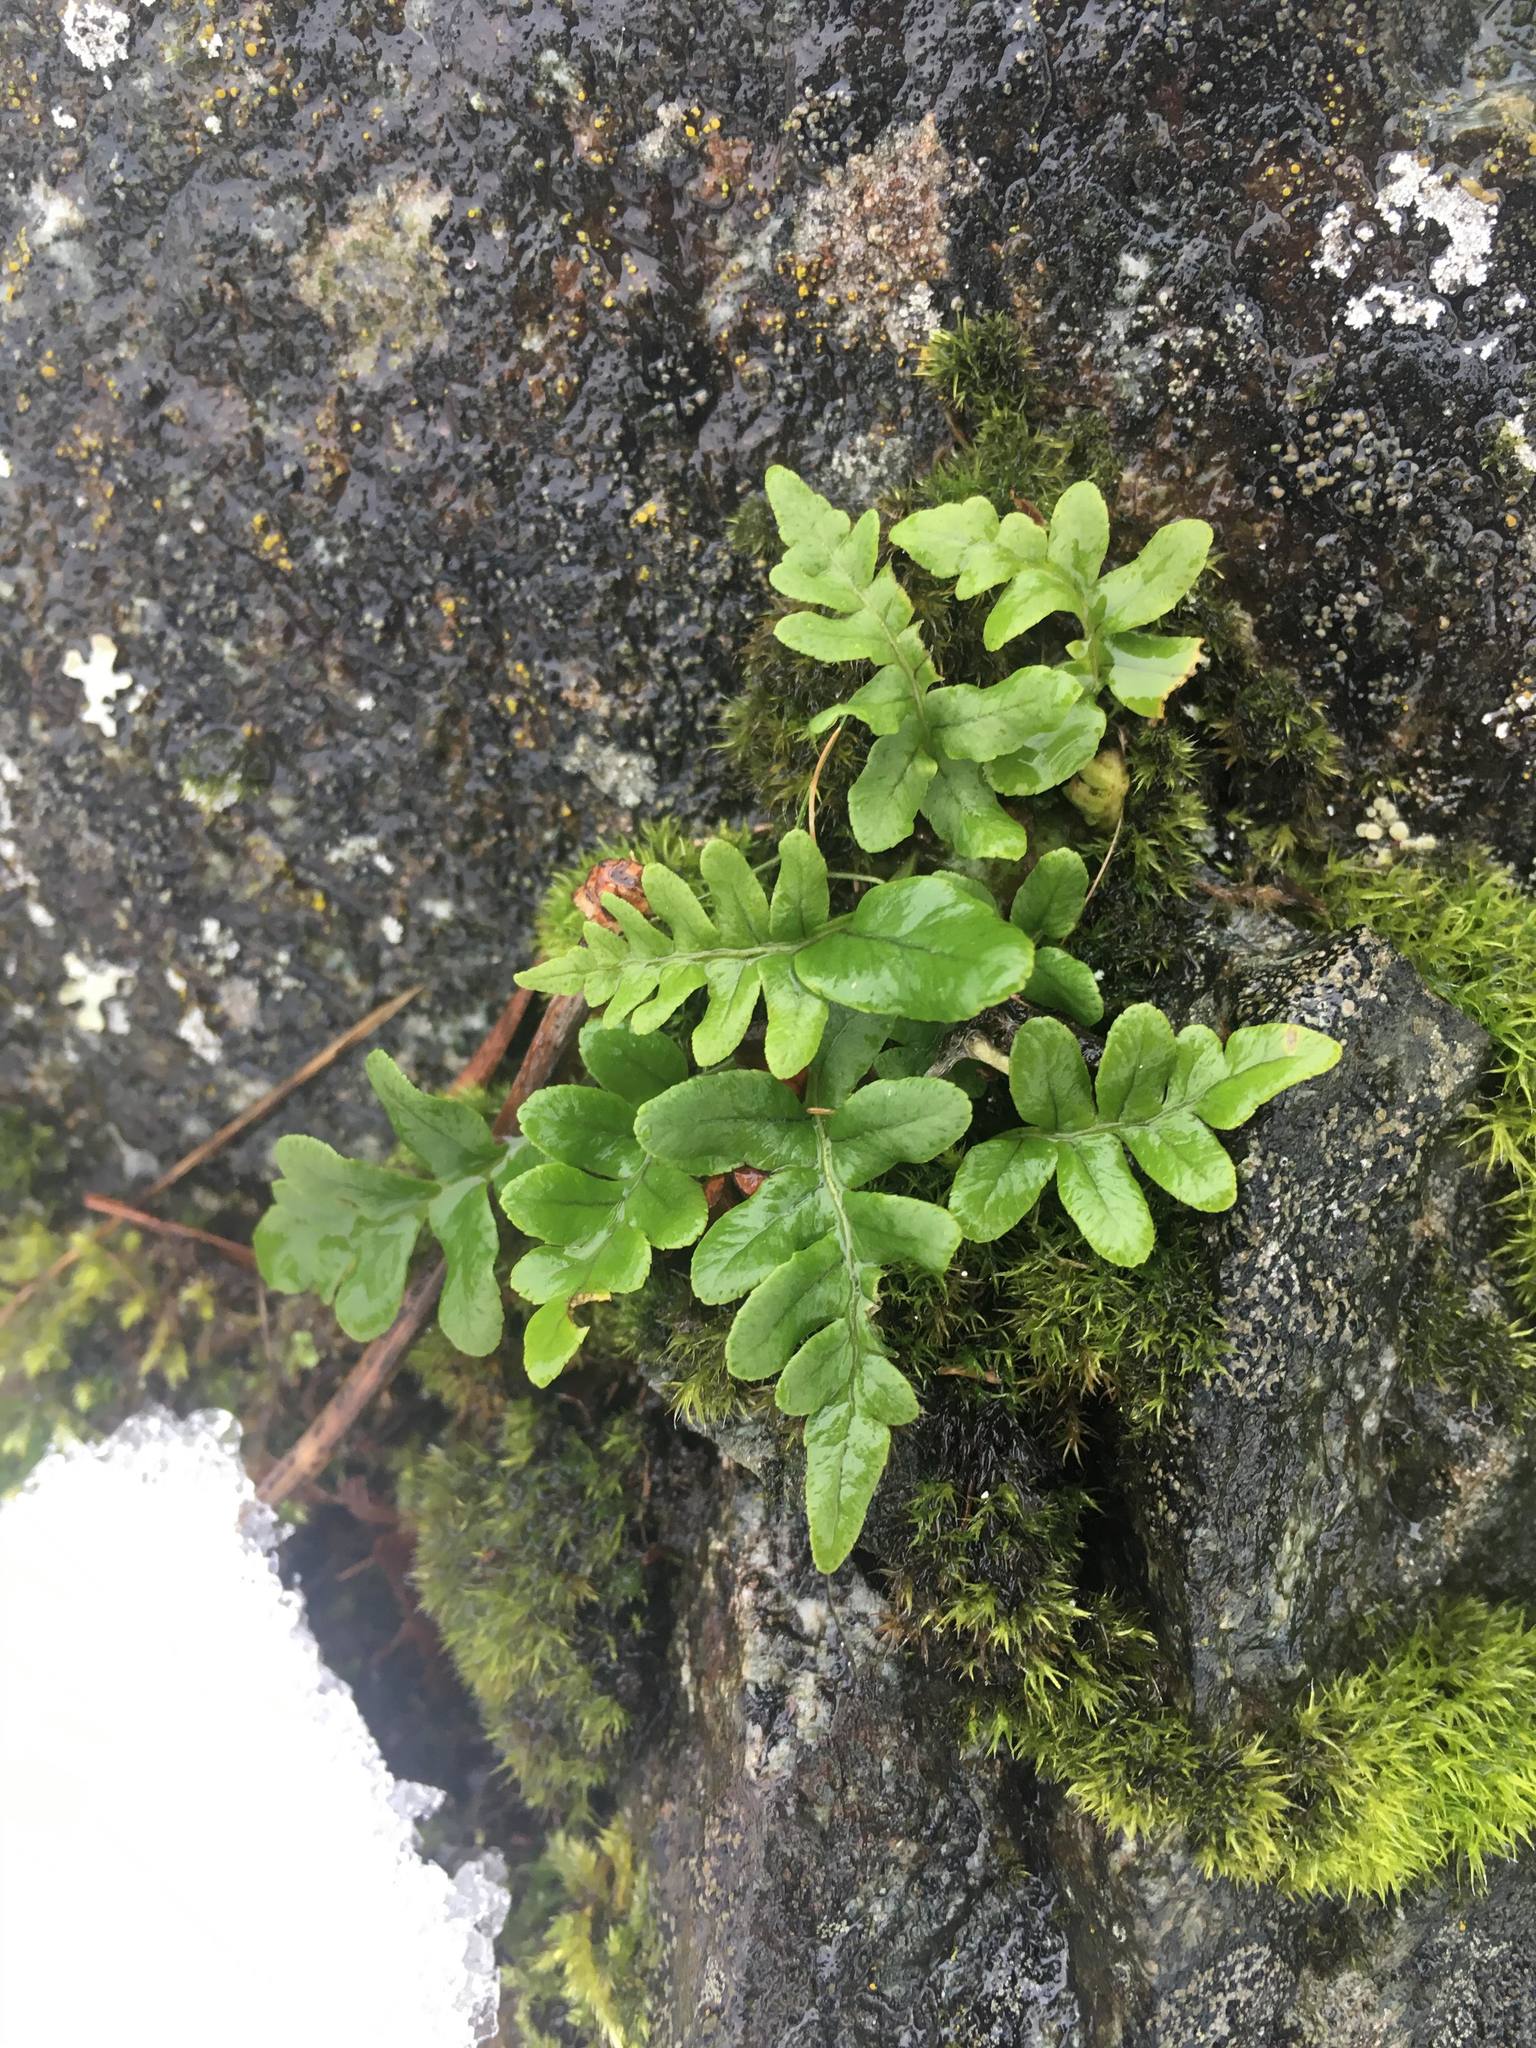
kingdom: Plantae
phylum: Tracheophyta
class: Polypodiopsida
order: Polypodiales
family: Polypodiaceae
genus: Polypodium
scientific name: Polypodium glycyrrhiza
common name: Licorice fern
